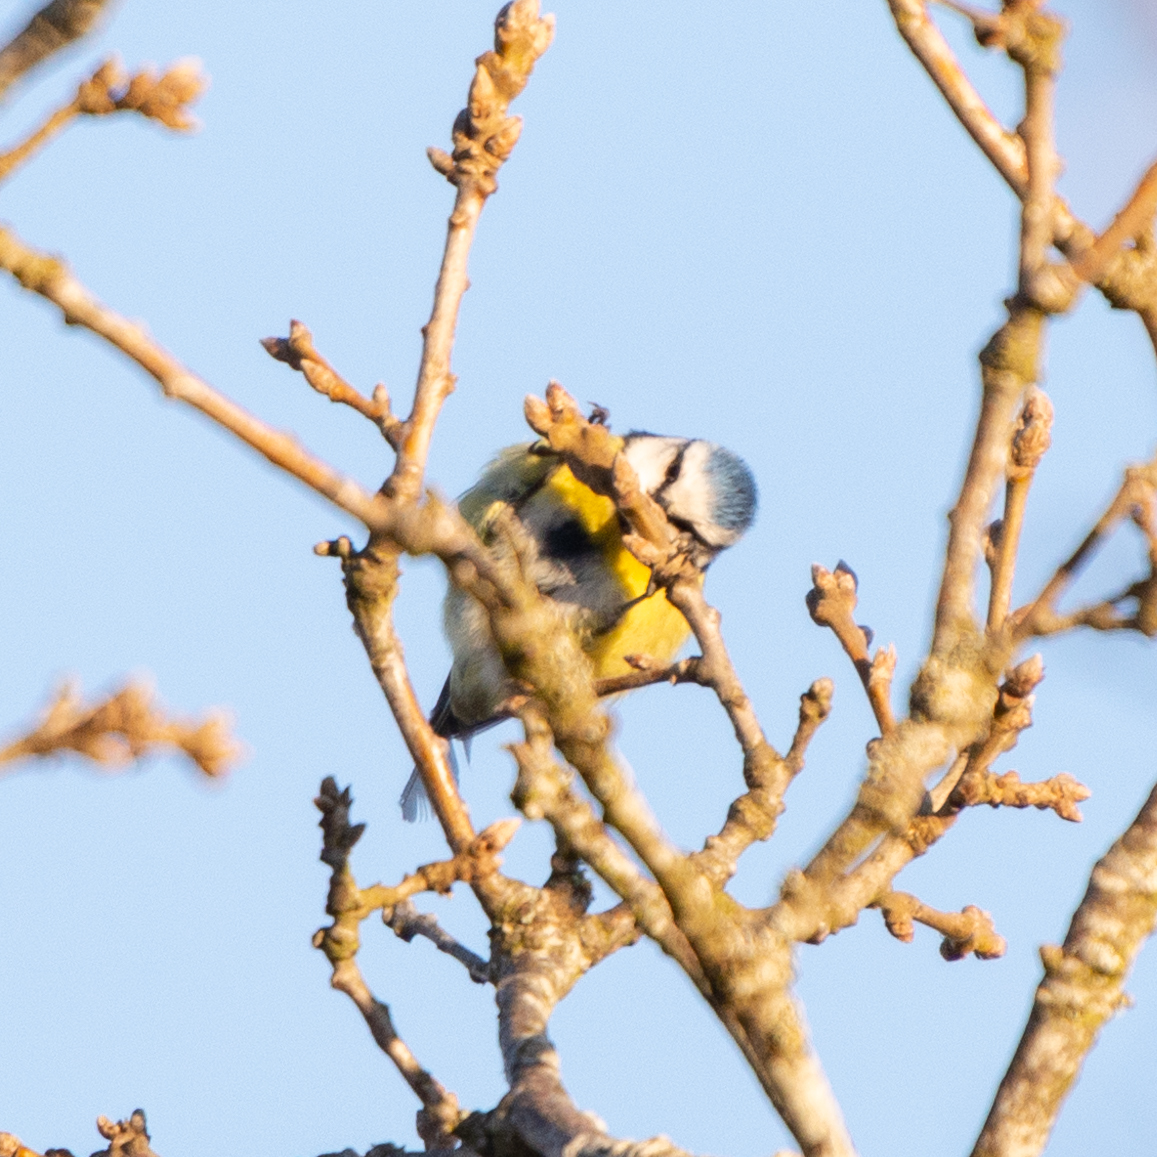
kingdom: Animalia
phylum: Chordata
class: Aves
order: Passeriformes
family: Paridae
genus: Cyanistes
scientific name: Cyanistes caeruleus
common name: Eurasian blue tit
